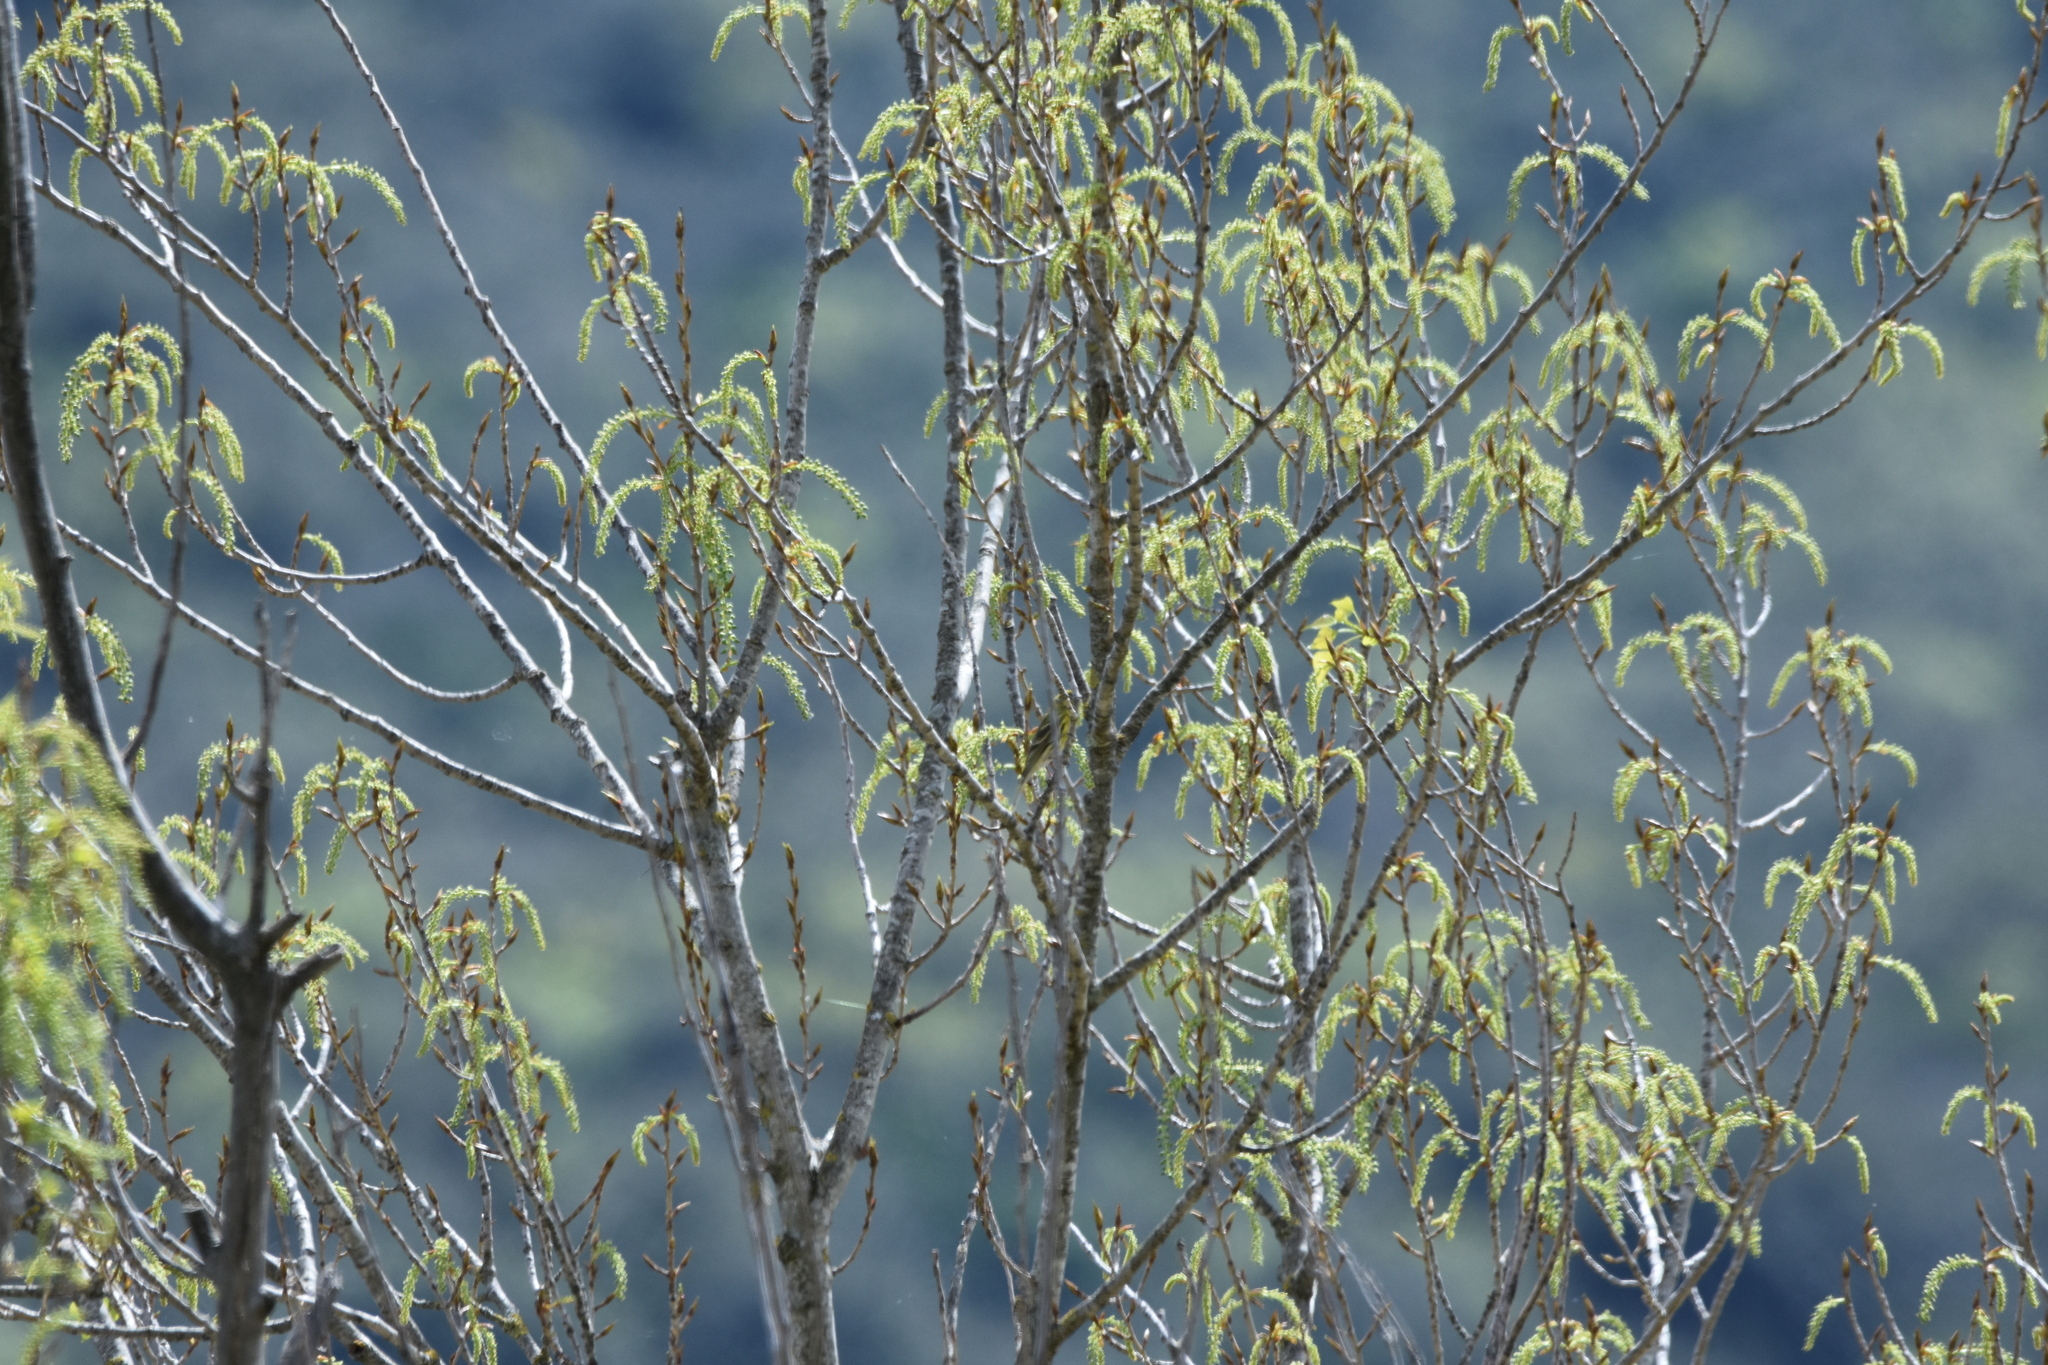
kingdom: Animalia
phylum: Chordata
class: Aves
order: Passeriformes
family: Fringillidae
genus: Serinus
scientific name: Serinus serinus
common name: European serin
